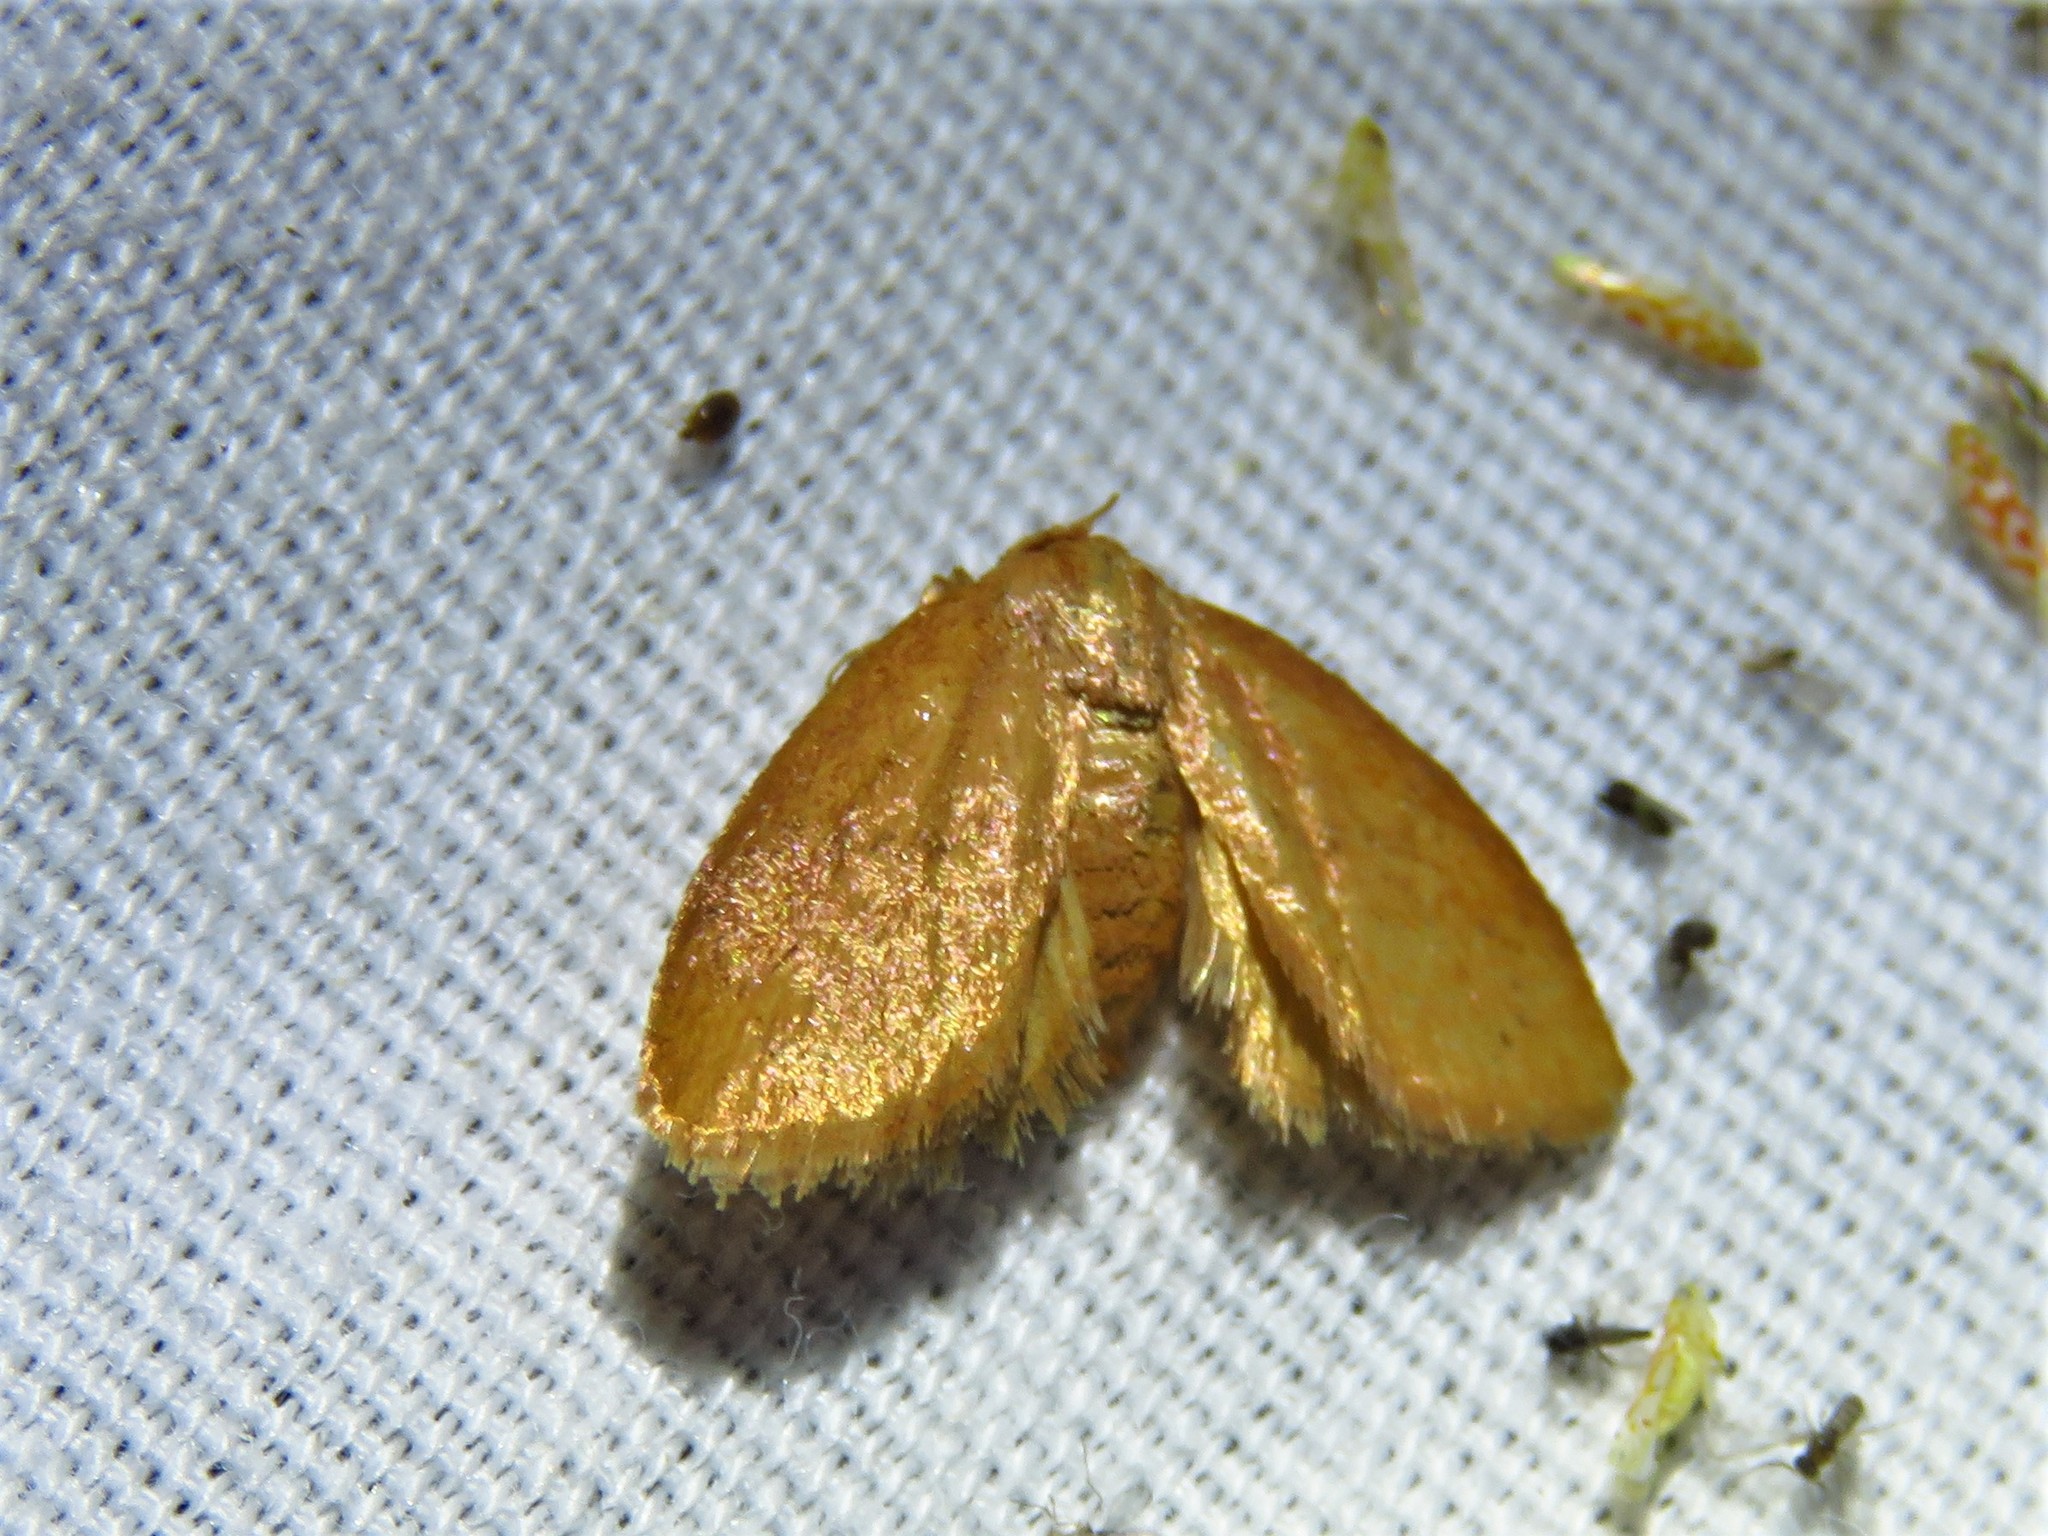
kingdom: Animalia
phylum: Arthropoda
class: Insecta
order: Lepidoptera
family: Limacodidae
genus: Heterogenea
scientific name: Heterogenea shurtleffi
